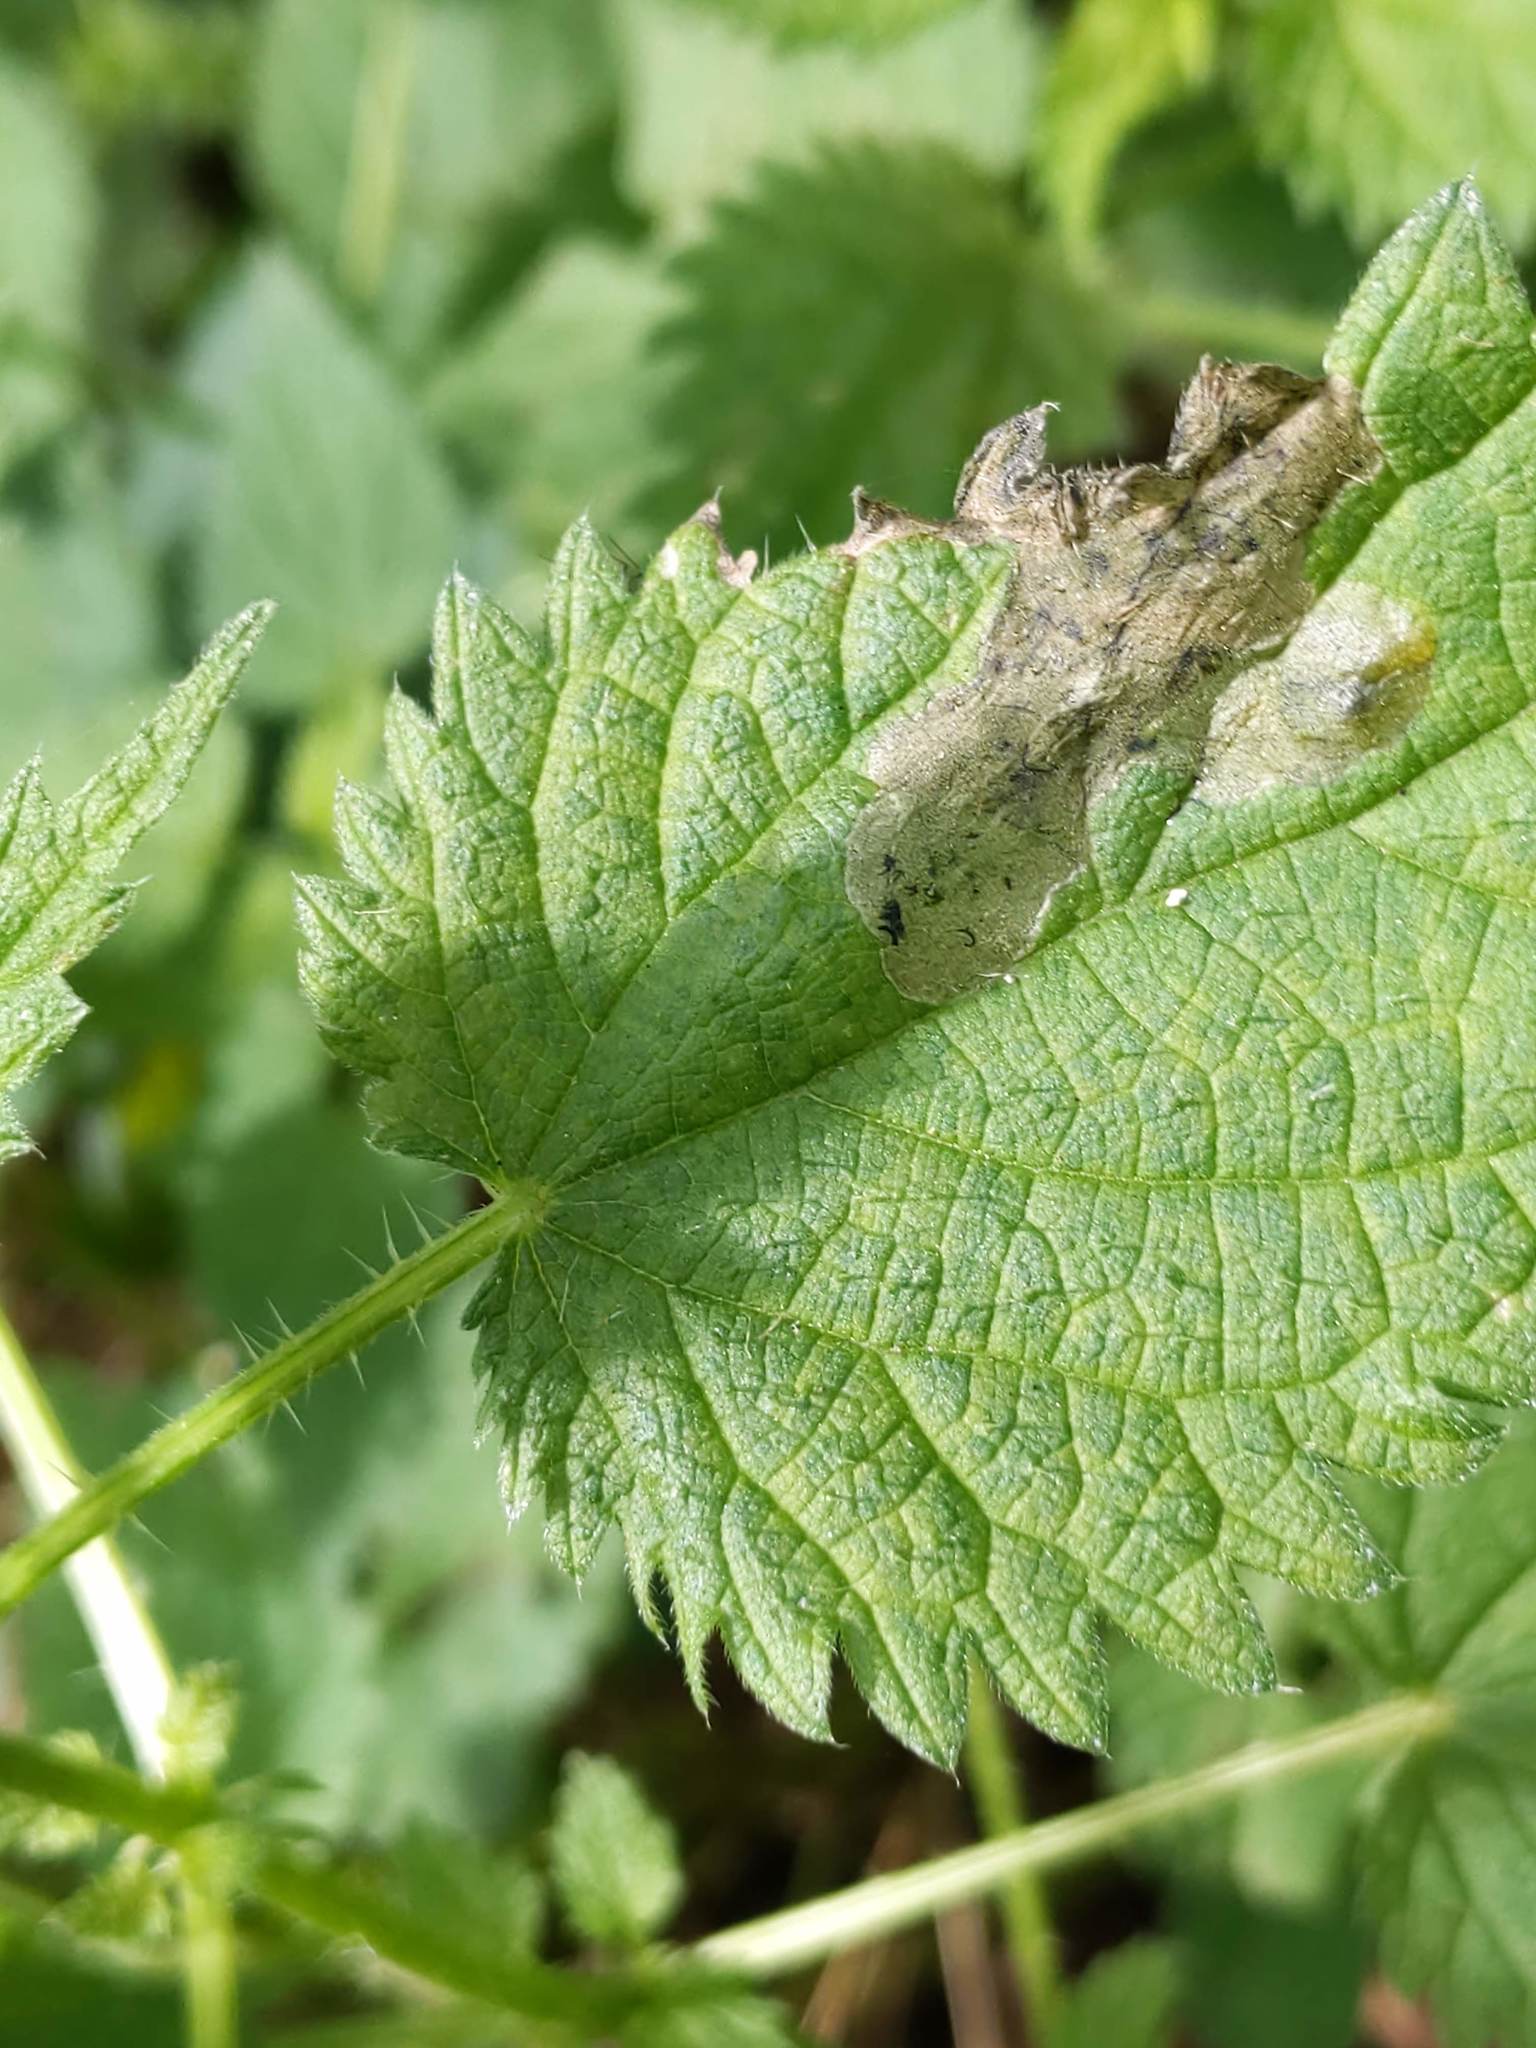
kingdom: Animalia
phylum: Arthropoda
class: Insecta
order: Diptera
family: Agromyzidae
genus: Agromyza
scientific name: Agromyza pseudoreptans
